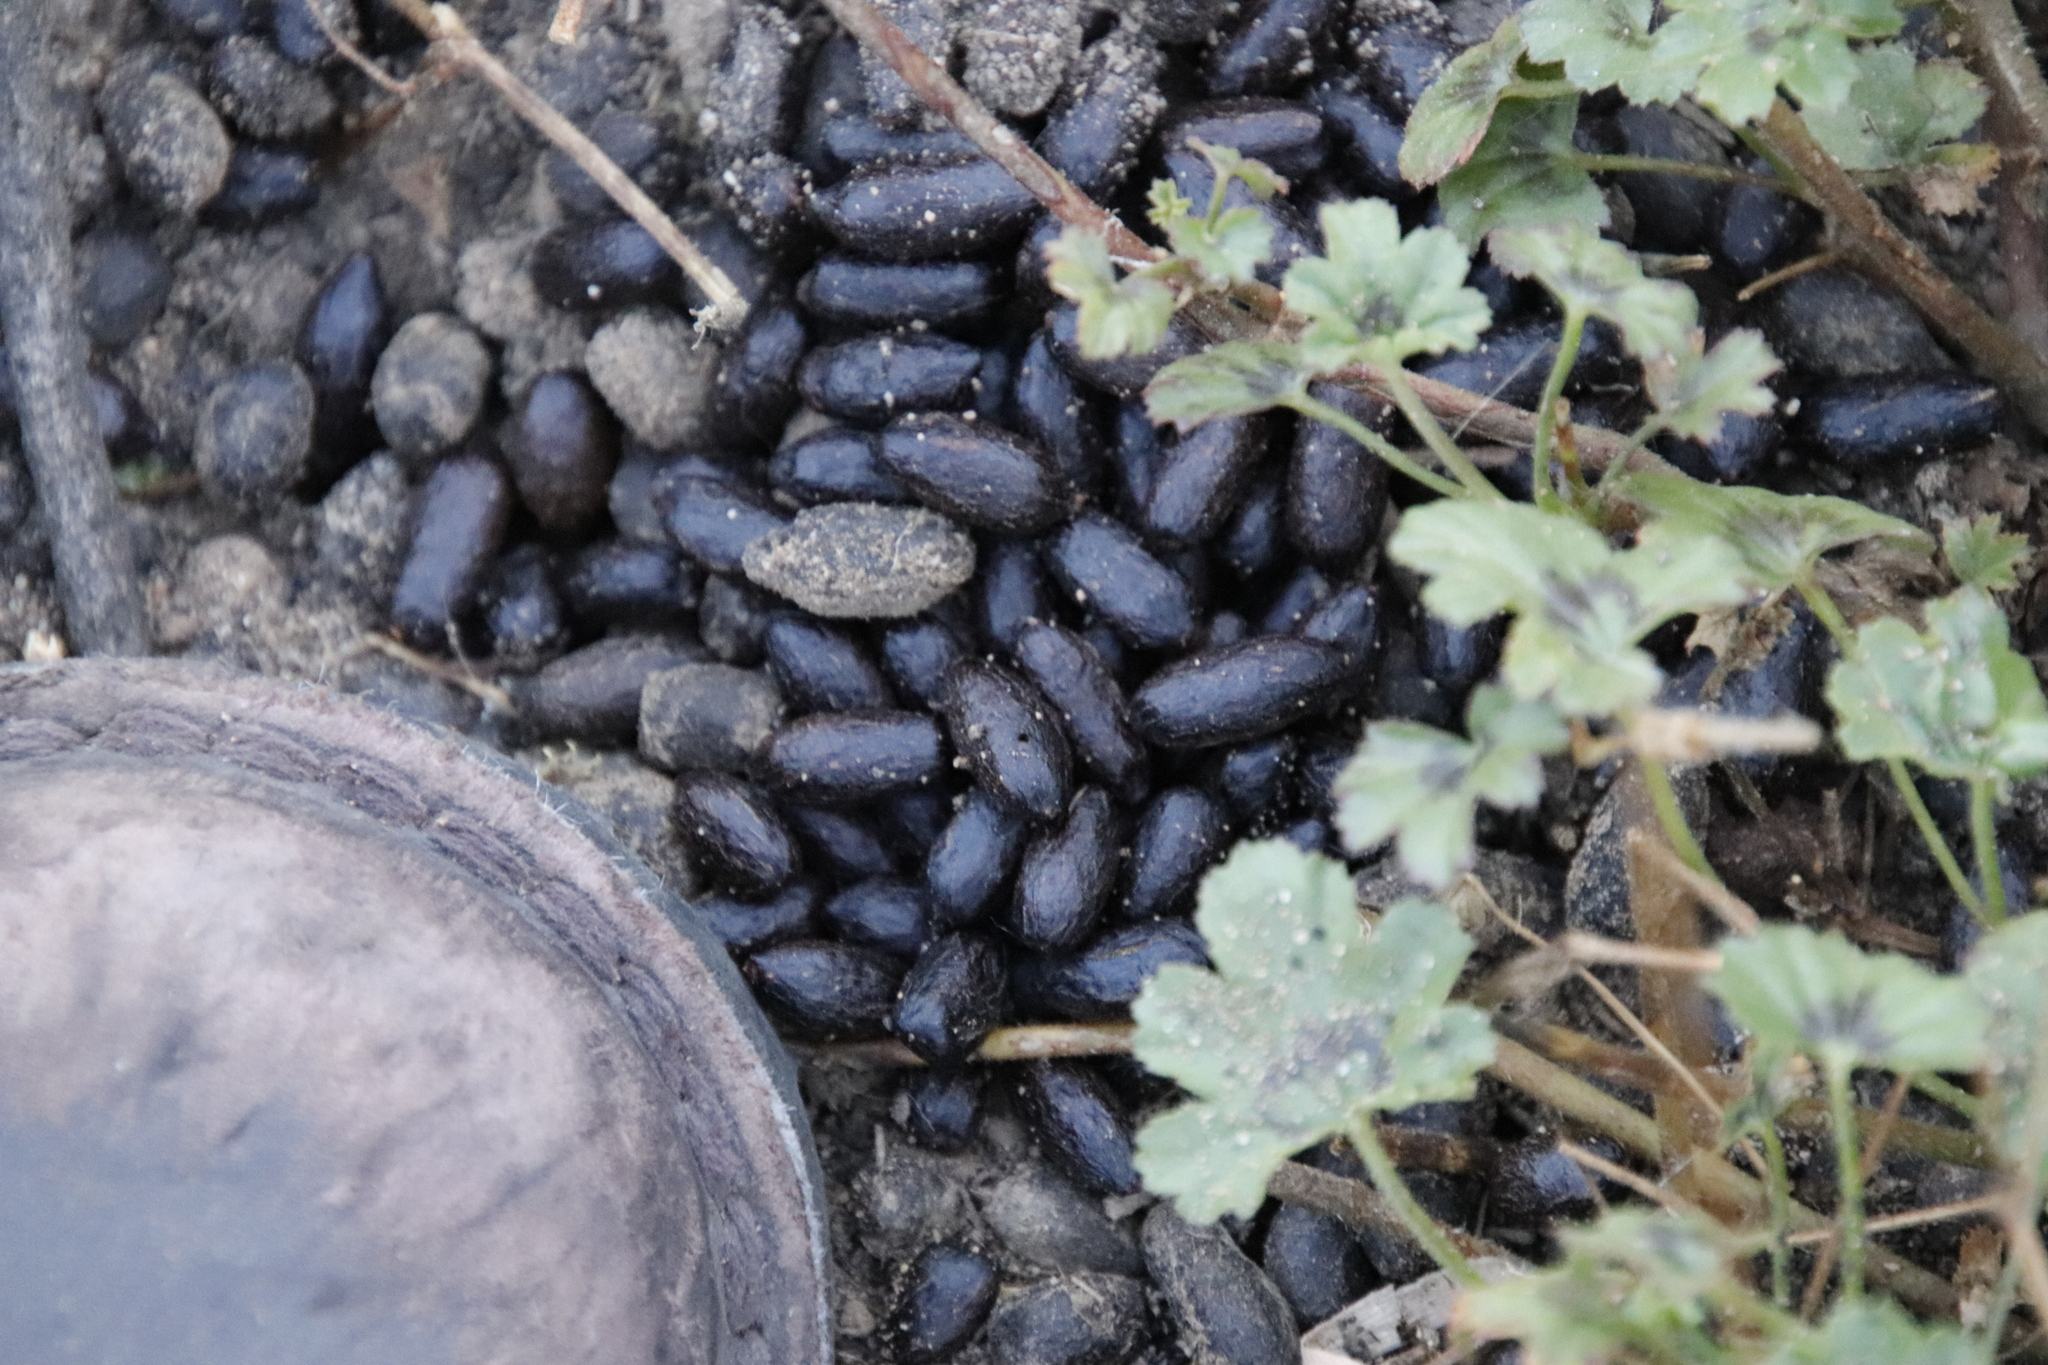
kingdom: Animalia
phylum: Chordata
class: Mammalia
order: Artiodactyla
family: Bovidae
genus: Sylvicapra
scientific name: Sylvicapra grimmia
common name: Bush duiker
